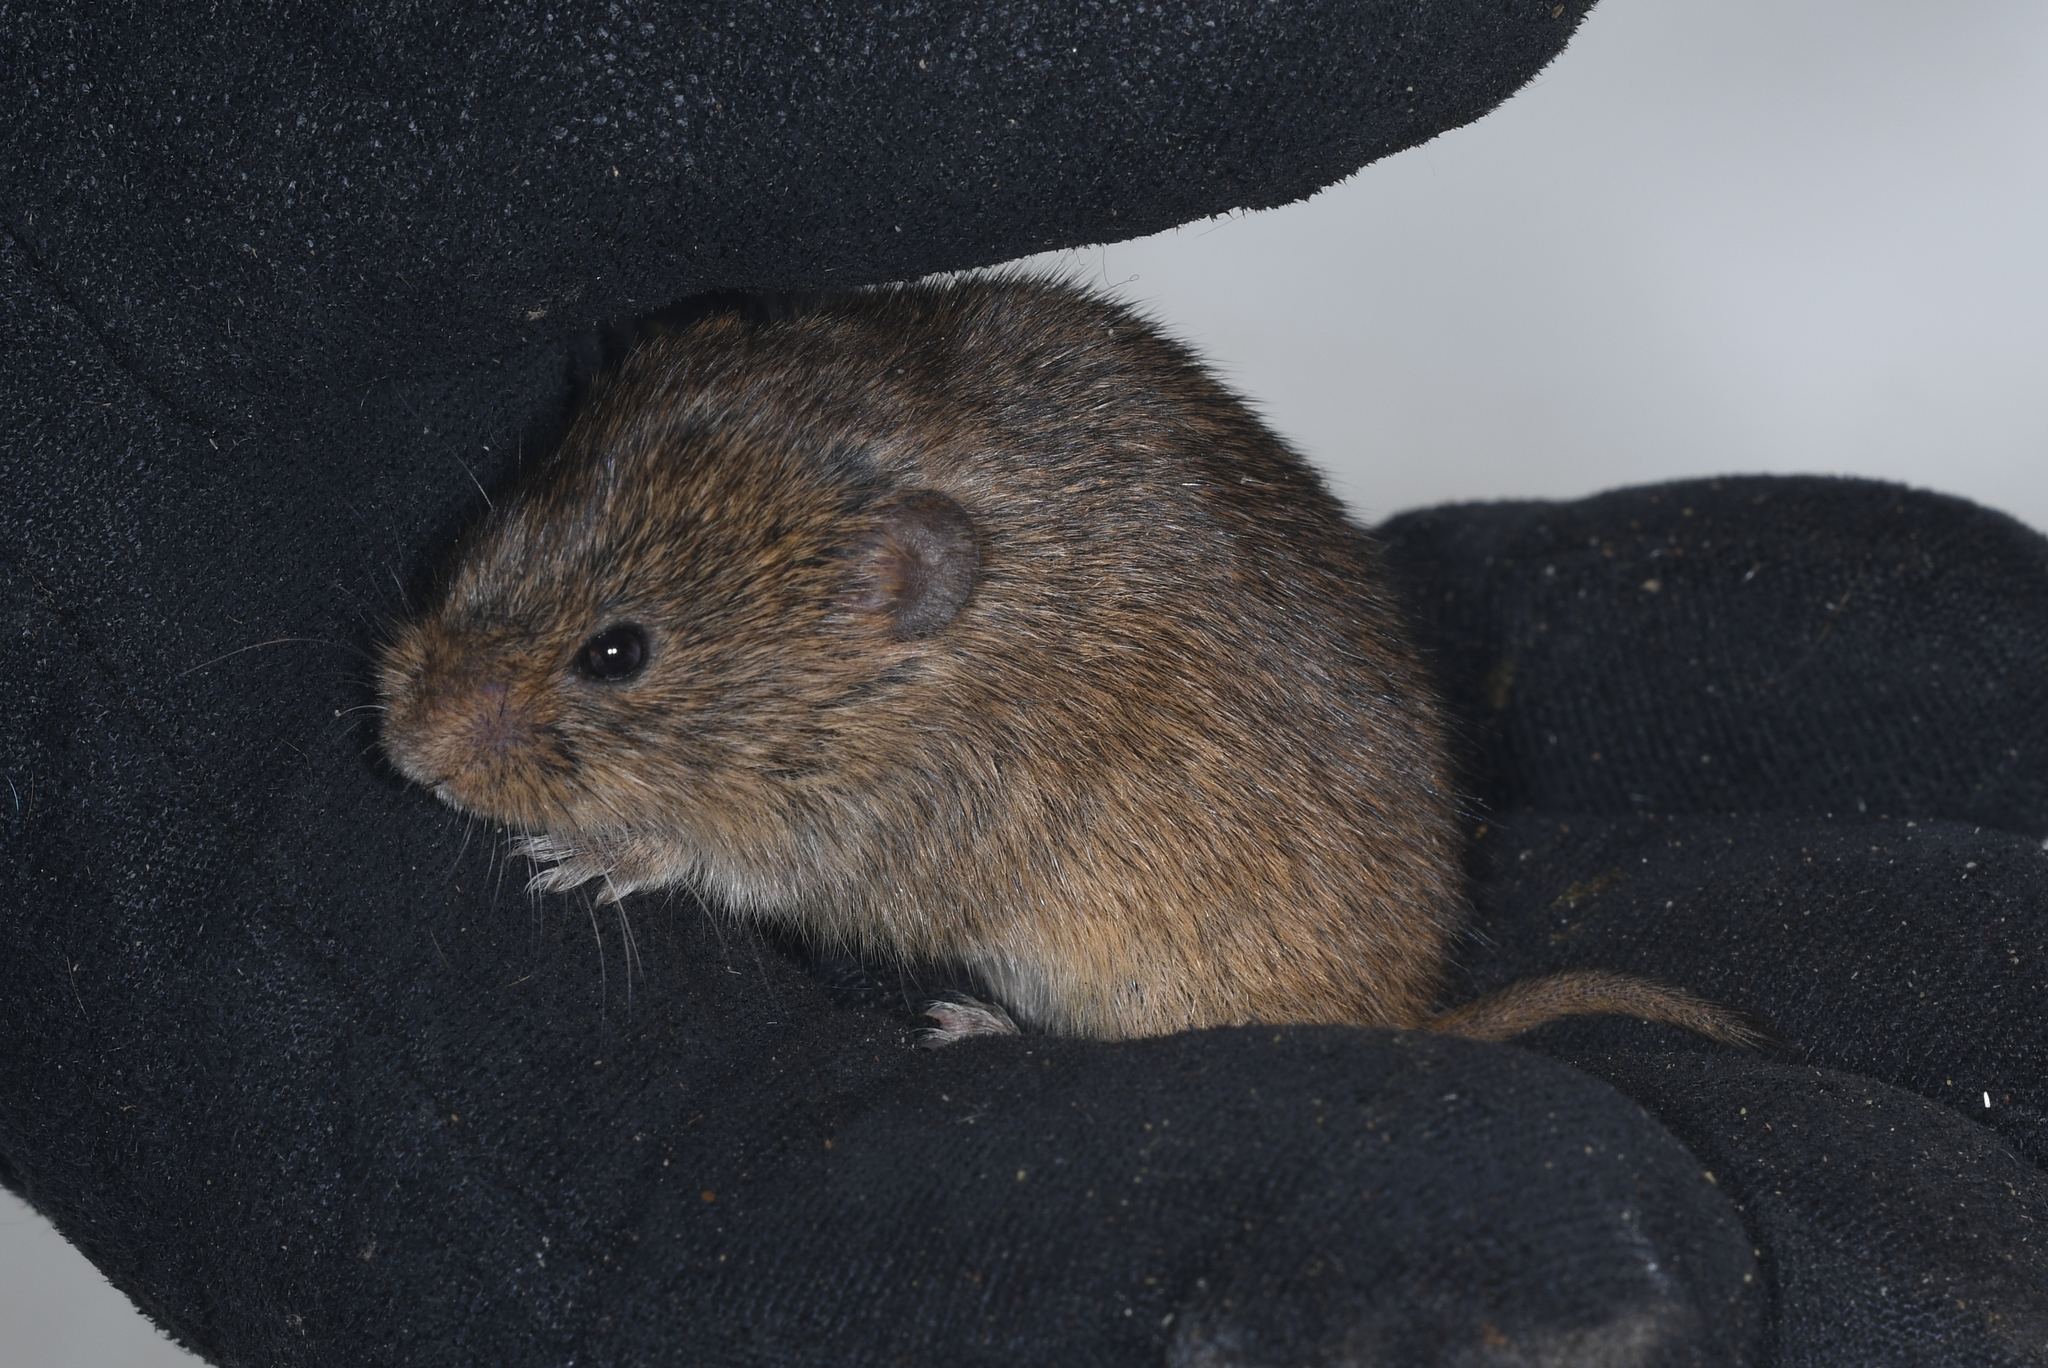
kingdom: Animalia
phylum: Chordata
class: Mammalia
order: Rodentia
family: Cricetidae
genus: Microtus
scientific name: Microtus arvalis
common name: Common vole
